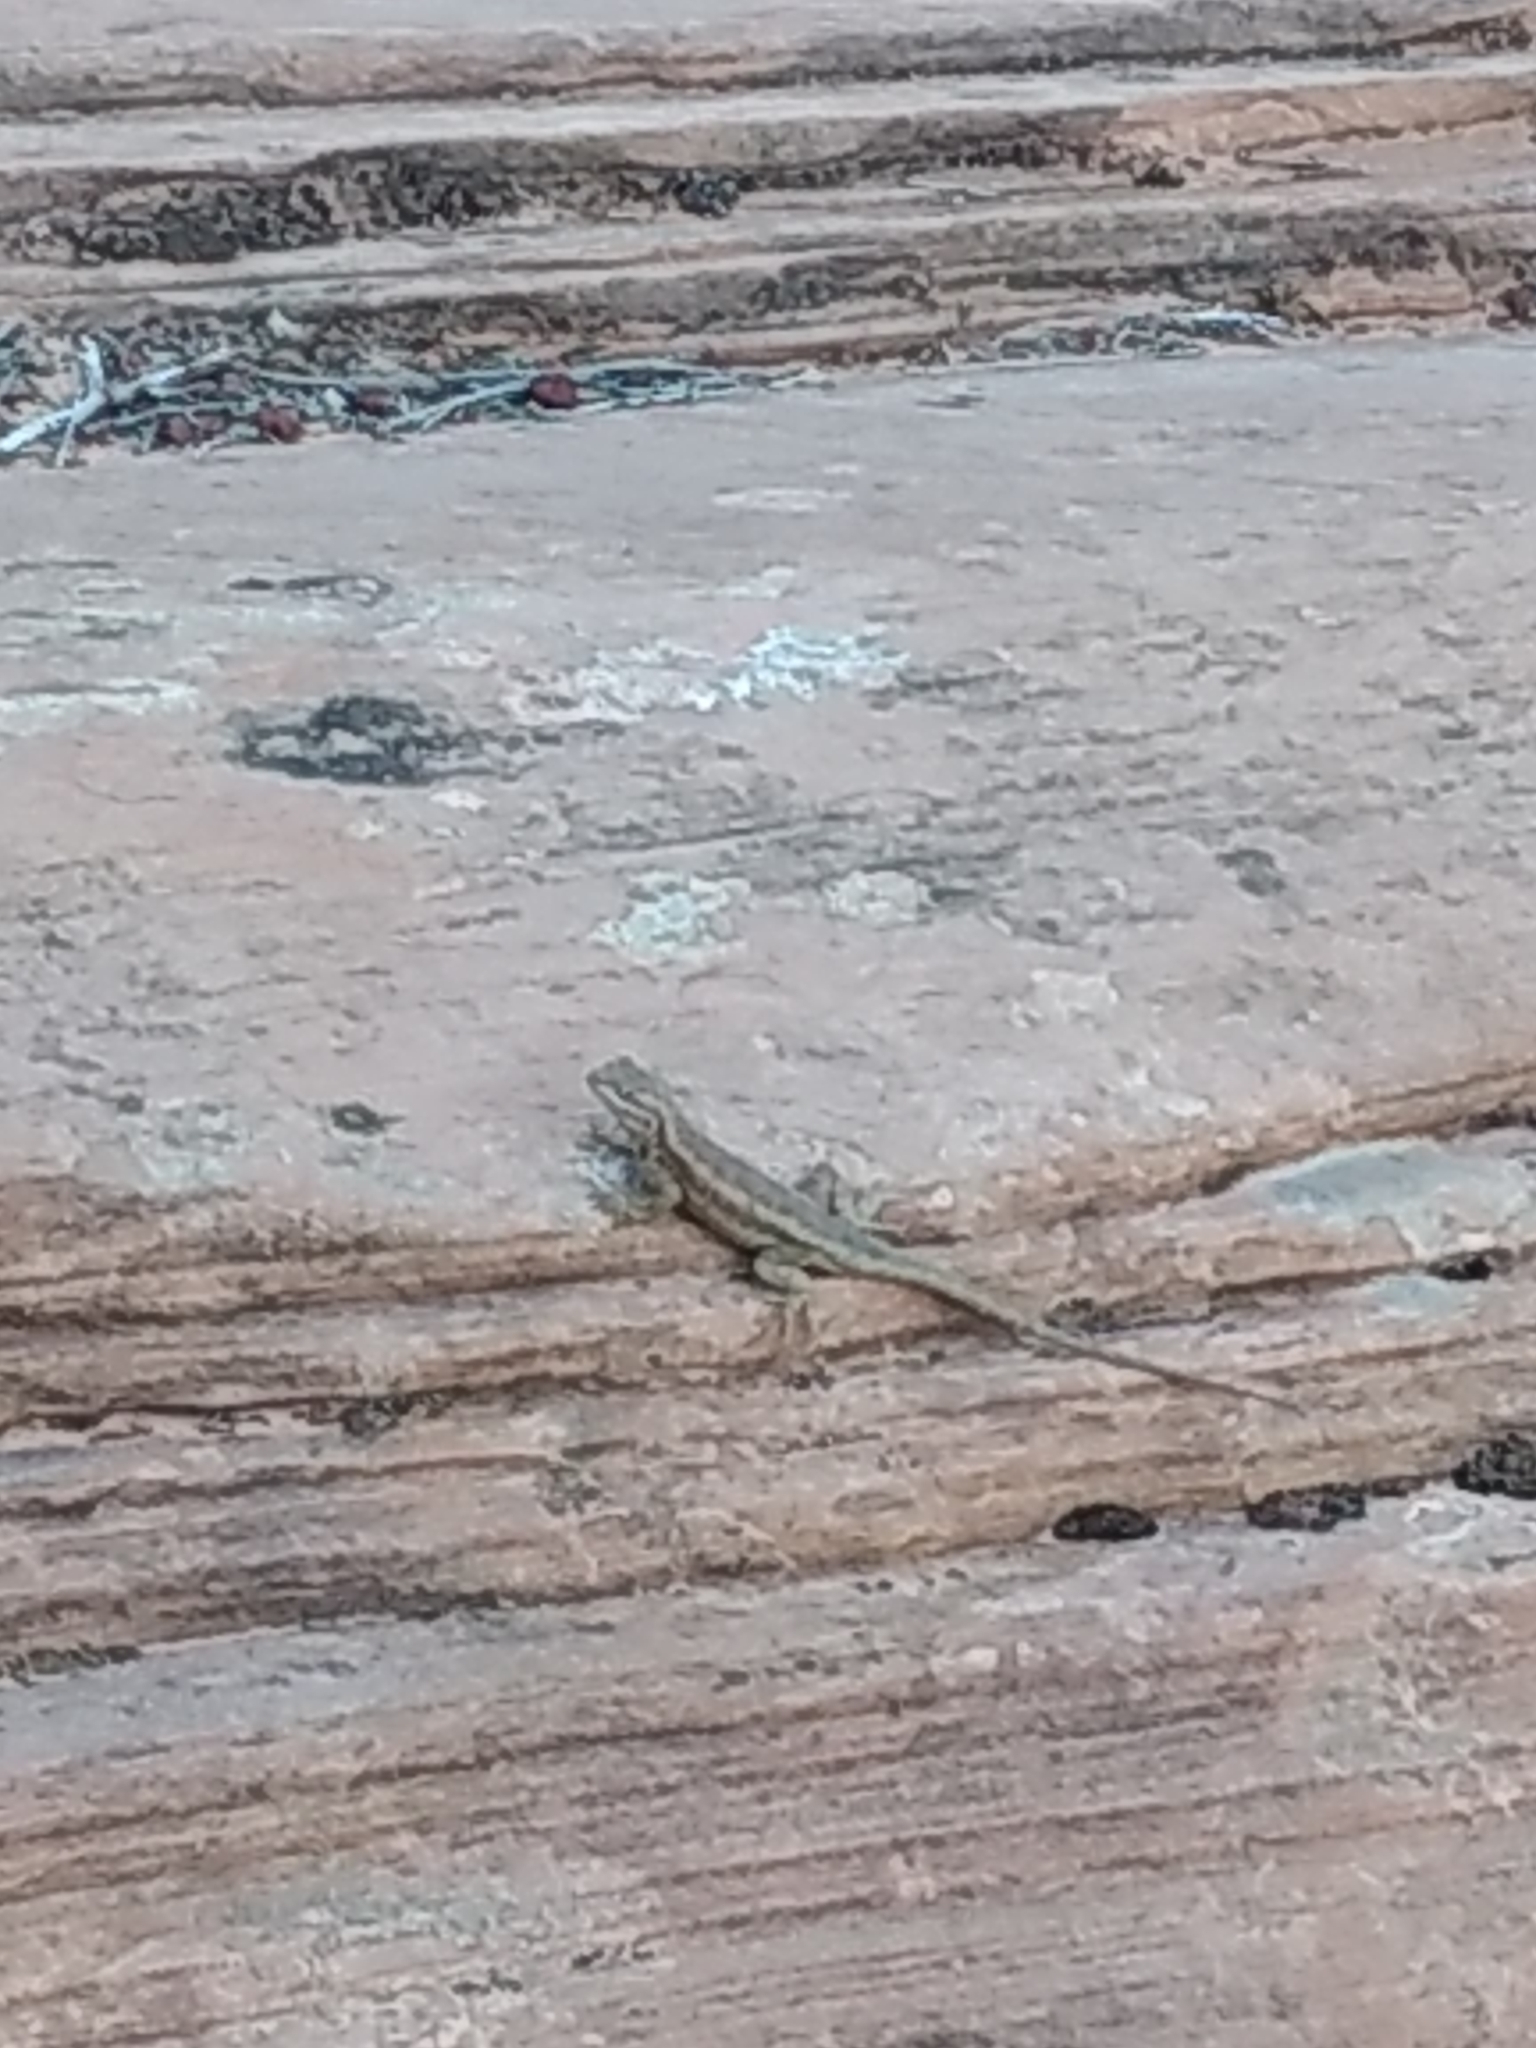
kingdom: Animalia
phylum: Chordata
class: Squamata
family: Phrynosomatidae
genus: Sceloporus
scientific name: Sceloporus graciosus
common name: Sagebrush lizard
